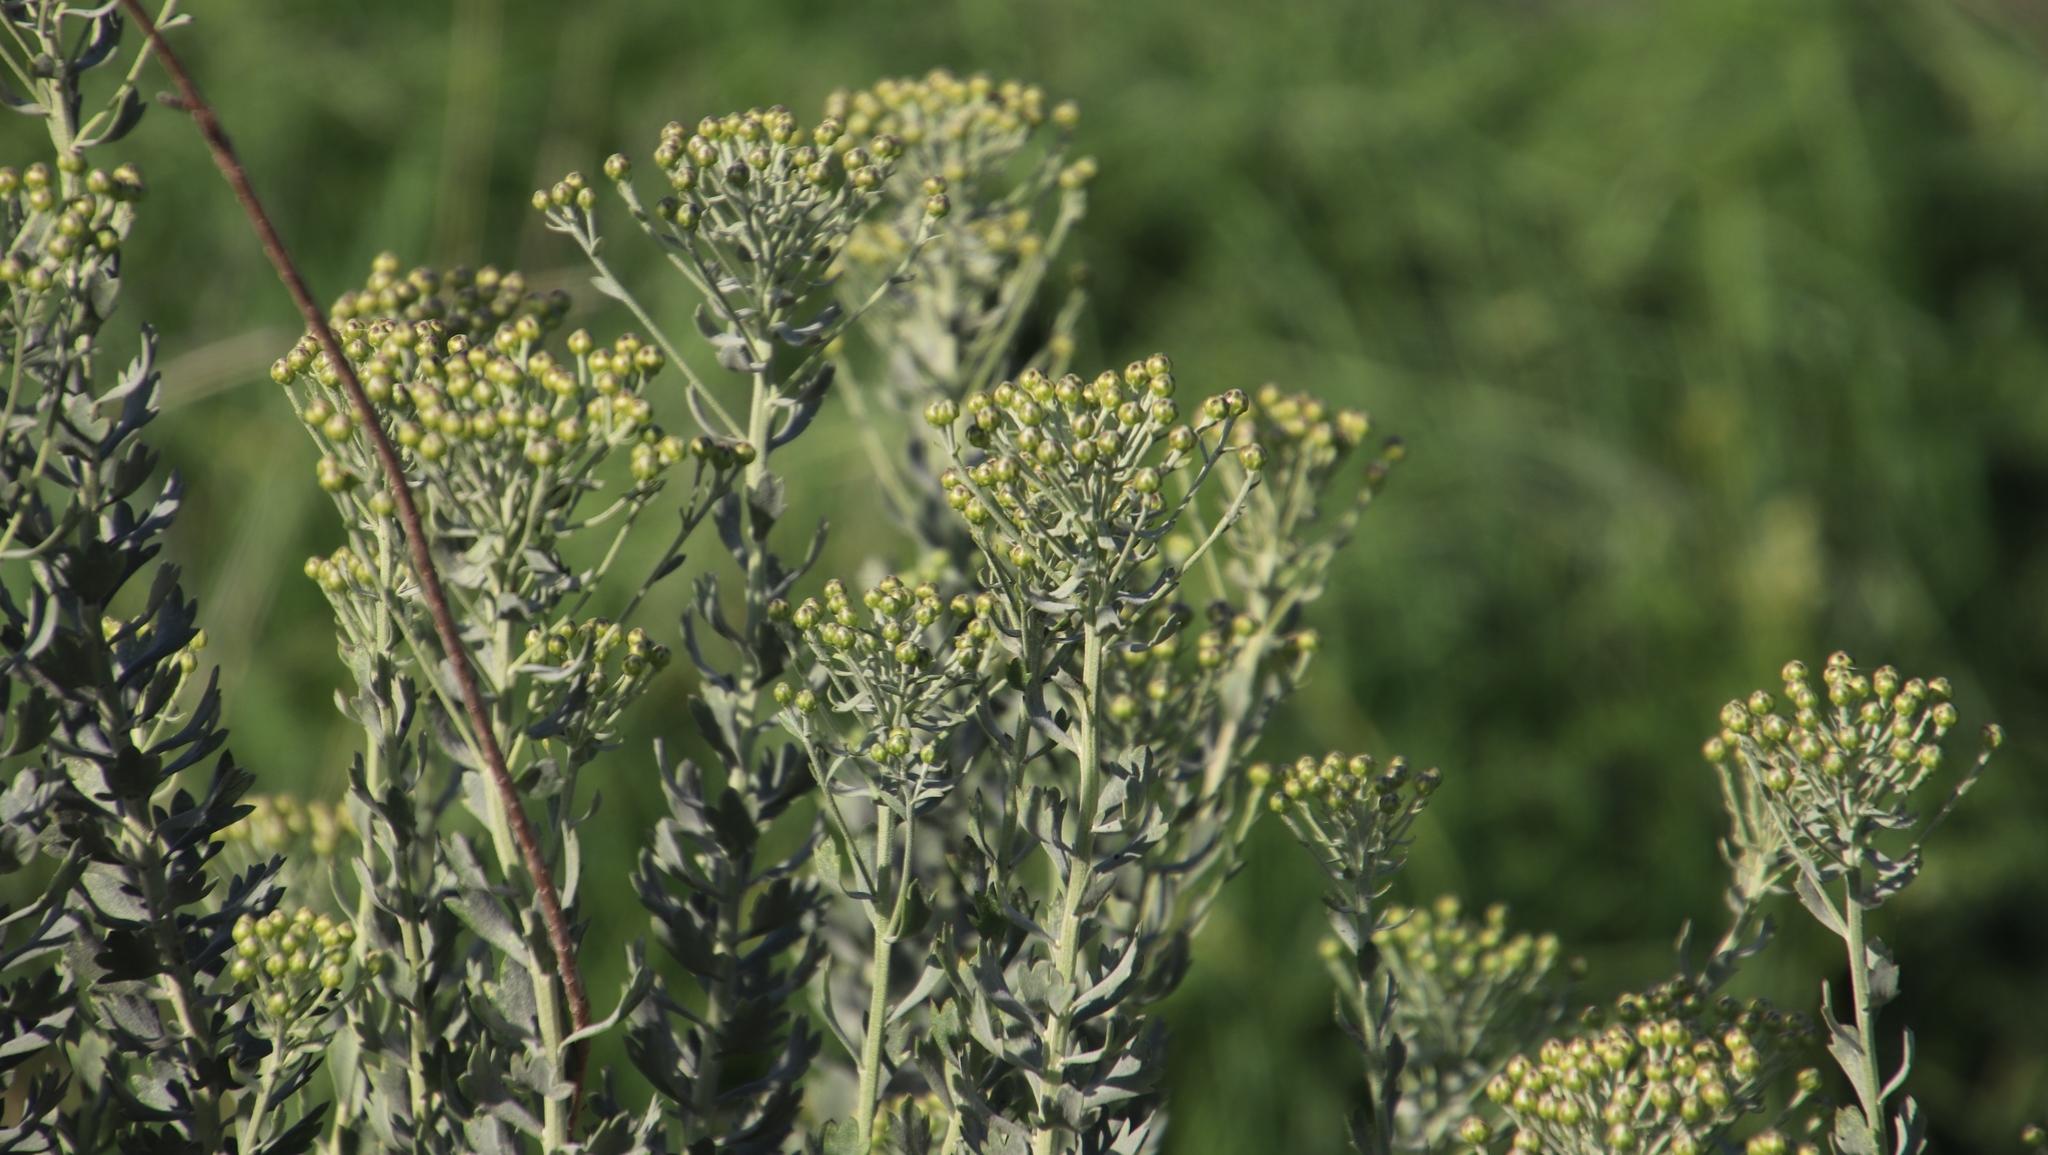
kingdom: Plantae
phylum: Tracheophyta
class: Magnoliopsida
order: Asterales
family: Asteraceae
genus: Athanasia
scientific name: Athanasia trifurcata
